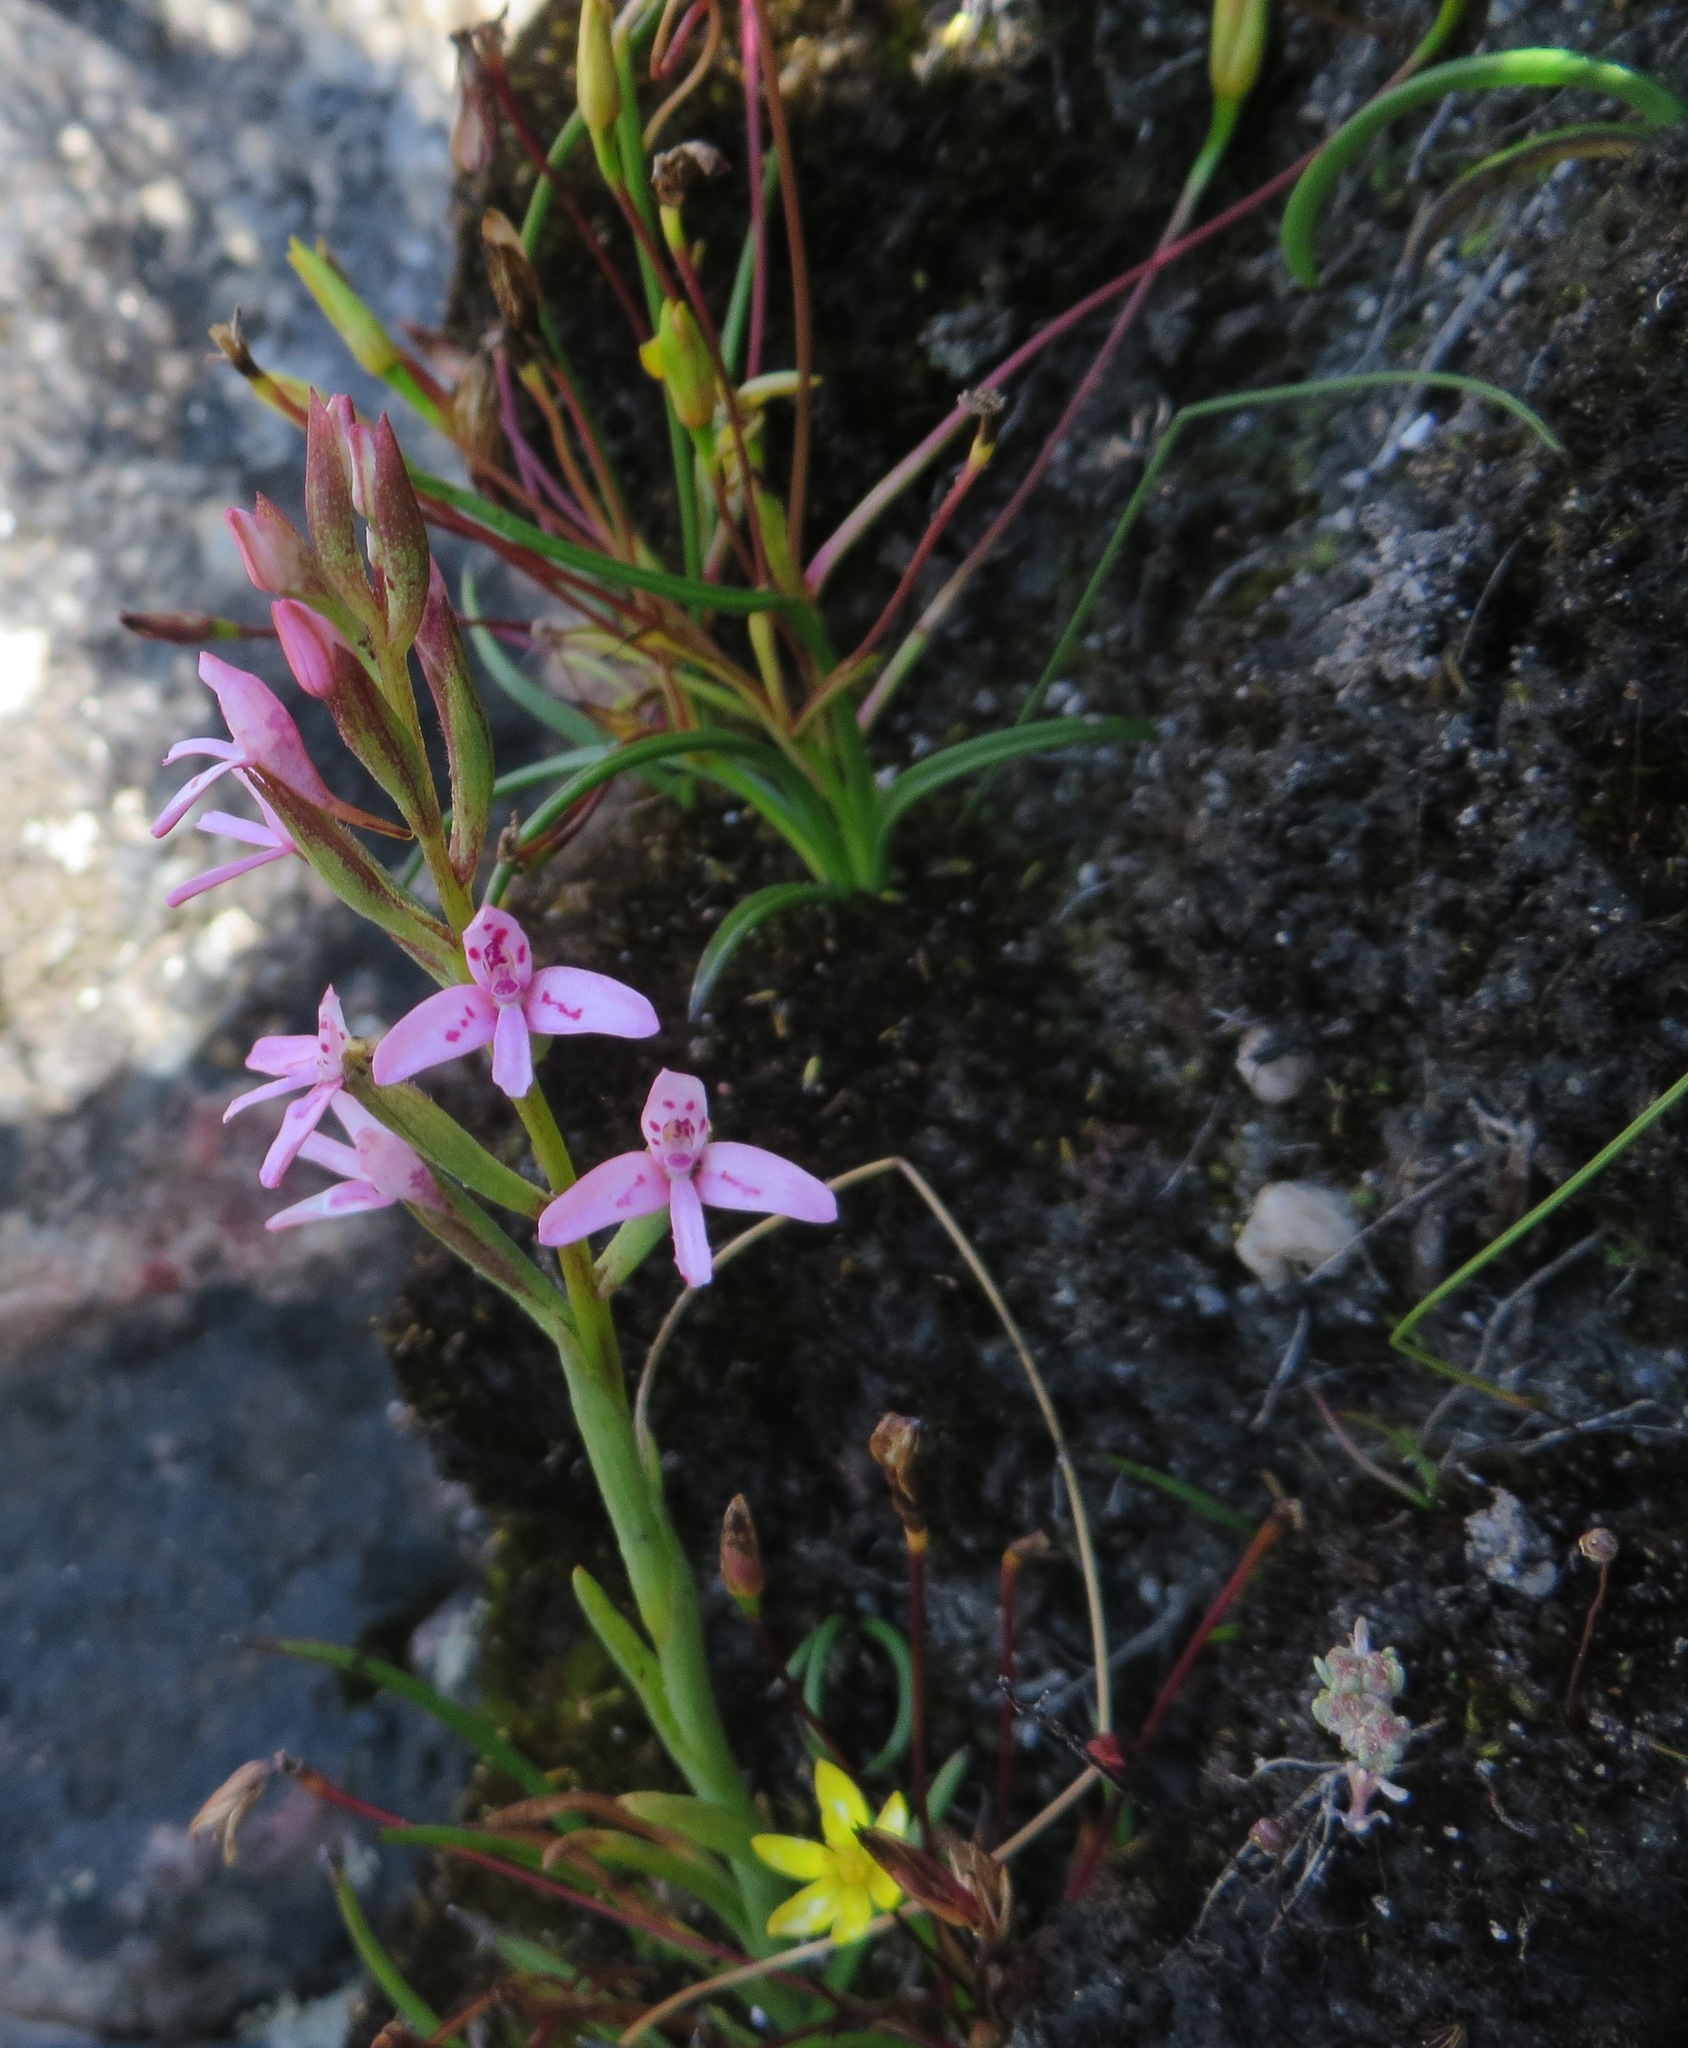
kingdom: Plantae
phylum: Tracheophyta
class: Liliopsida
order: Asparagales
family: Orchidaceae
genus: Disa
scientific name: Disa vaginata
